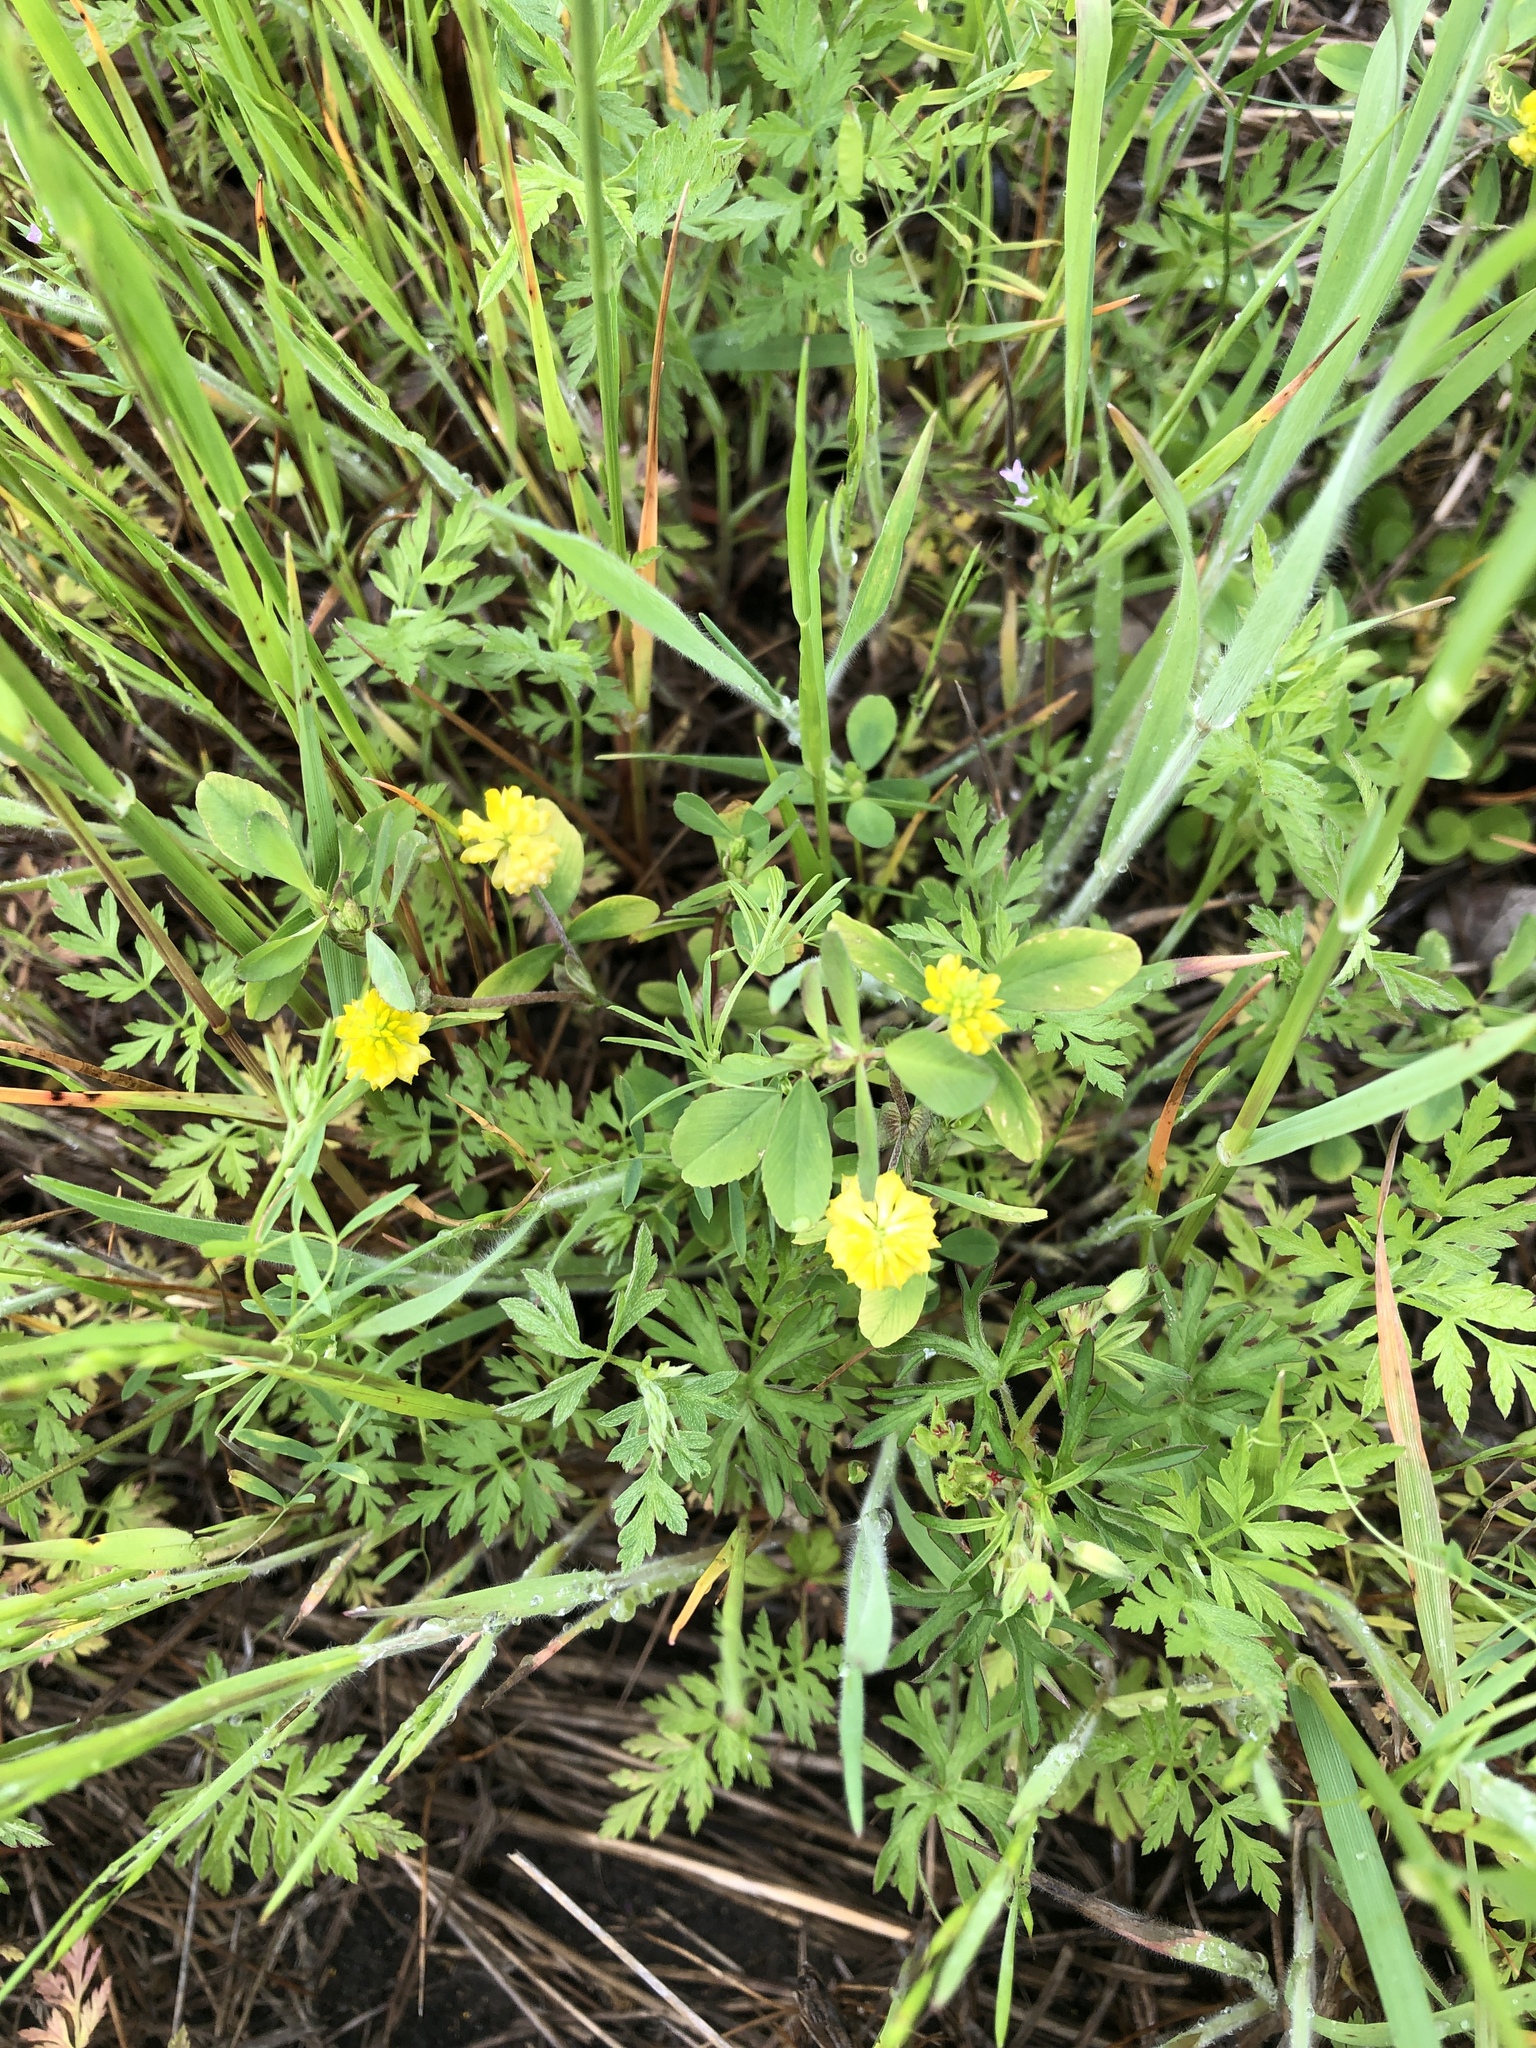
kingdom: Plantae
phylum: Tracheophyta
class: Magnoliopsida
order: Fabales
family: Fabaceae
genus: Trifolium
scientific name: Trifolium campestre
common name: Field clover
